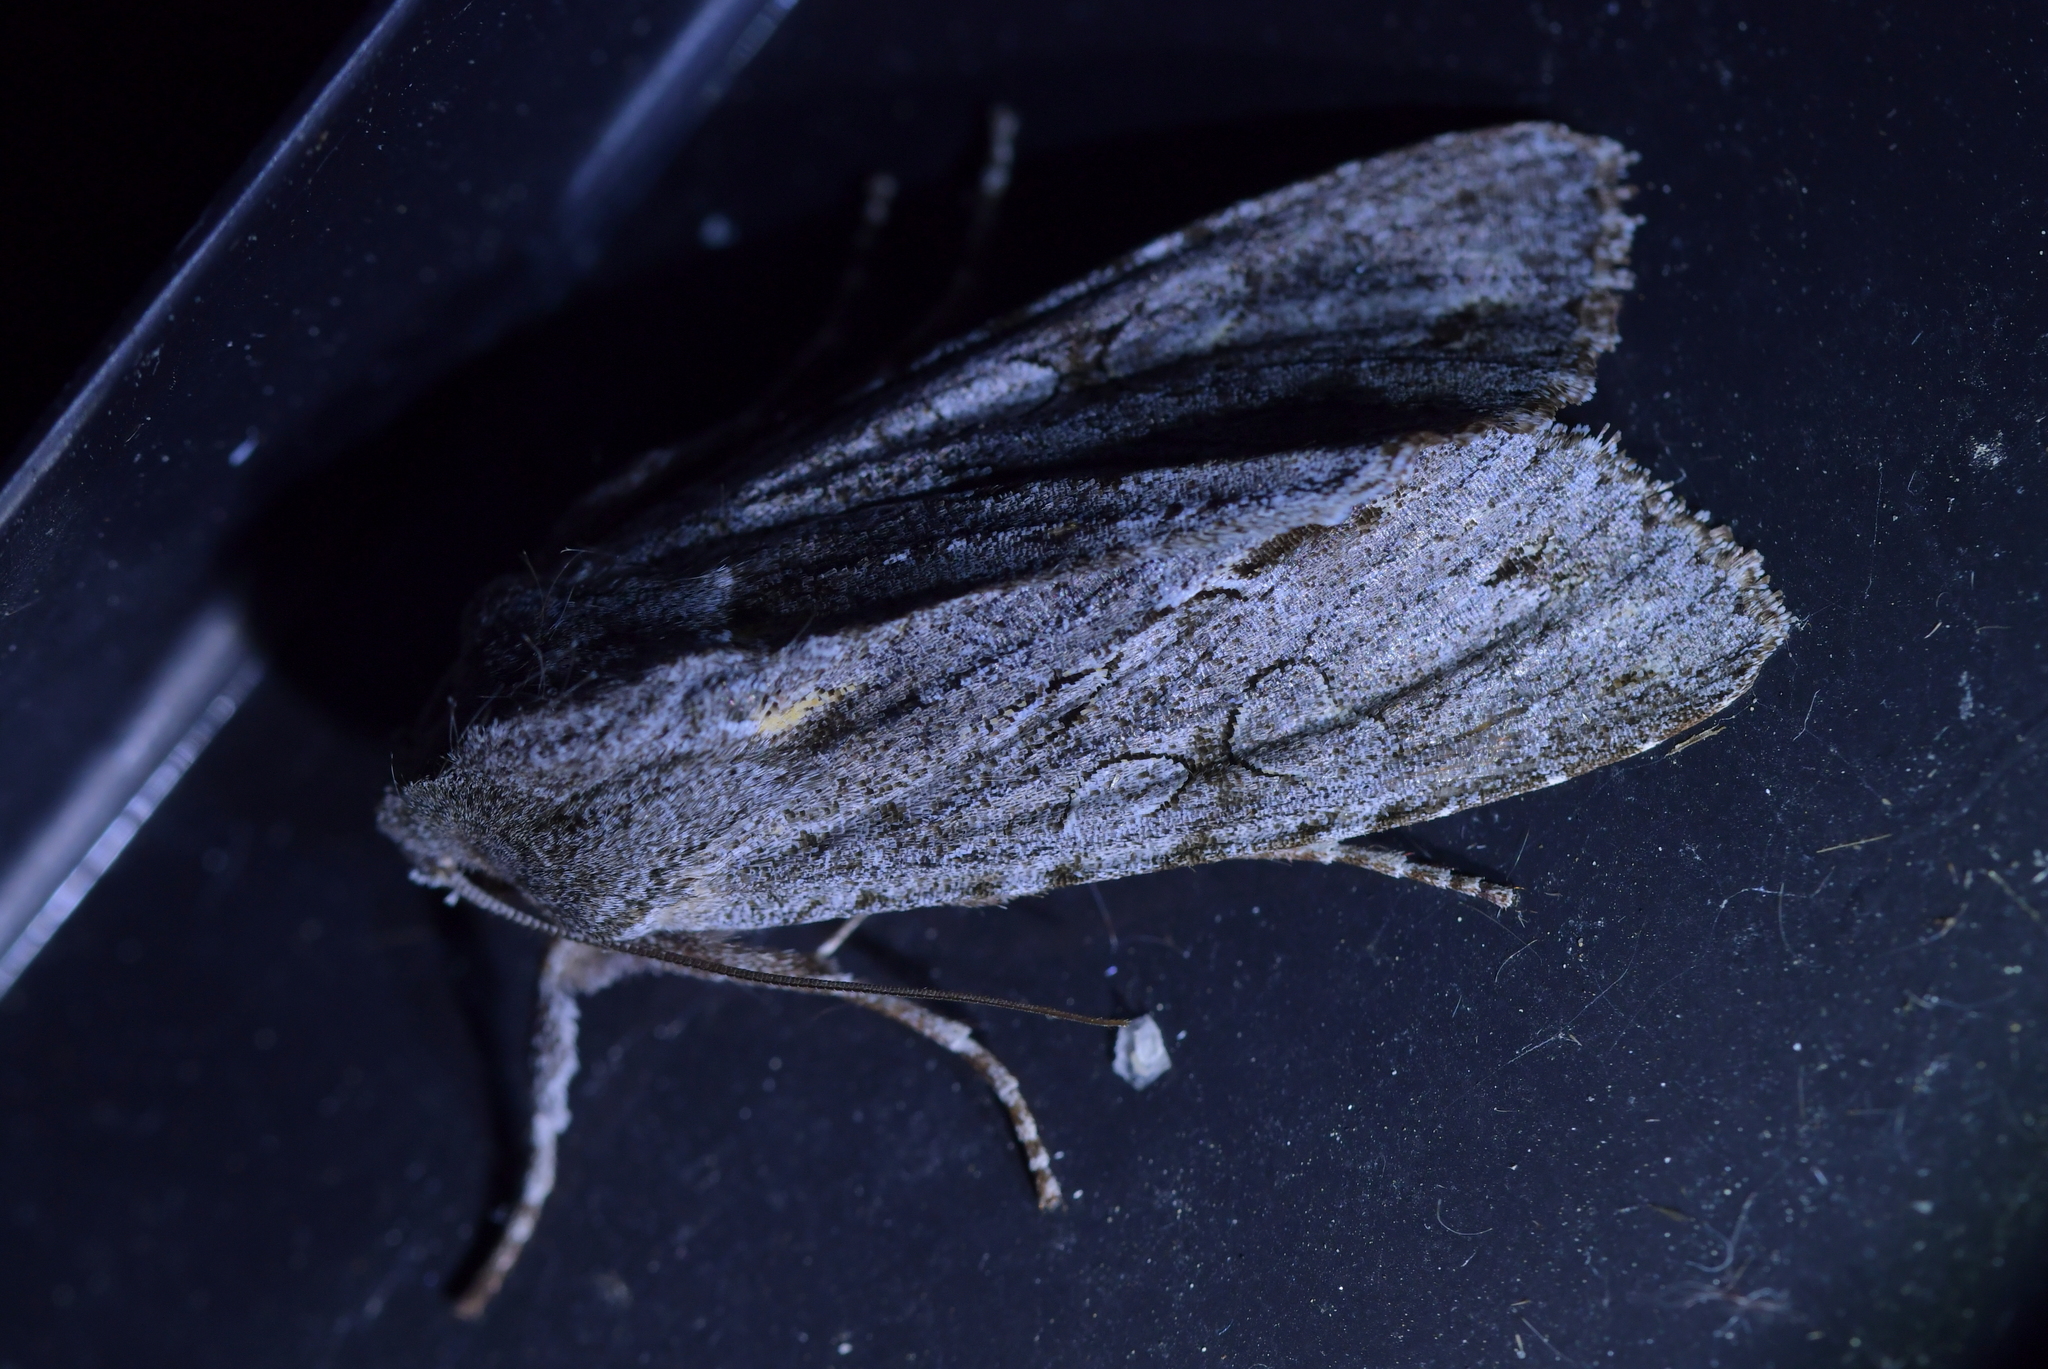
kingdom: Animalia
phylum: Arthropoda
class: Insecta
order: Lepidoptera
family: Noctuidae
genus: Ichneutica
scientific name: Ichneutica
